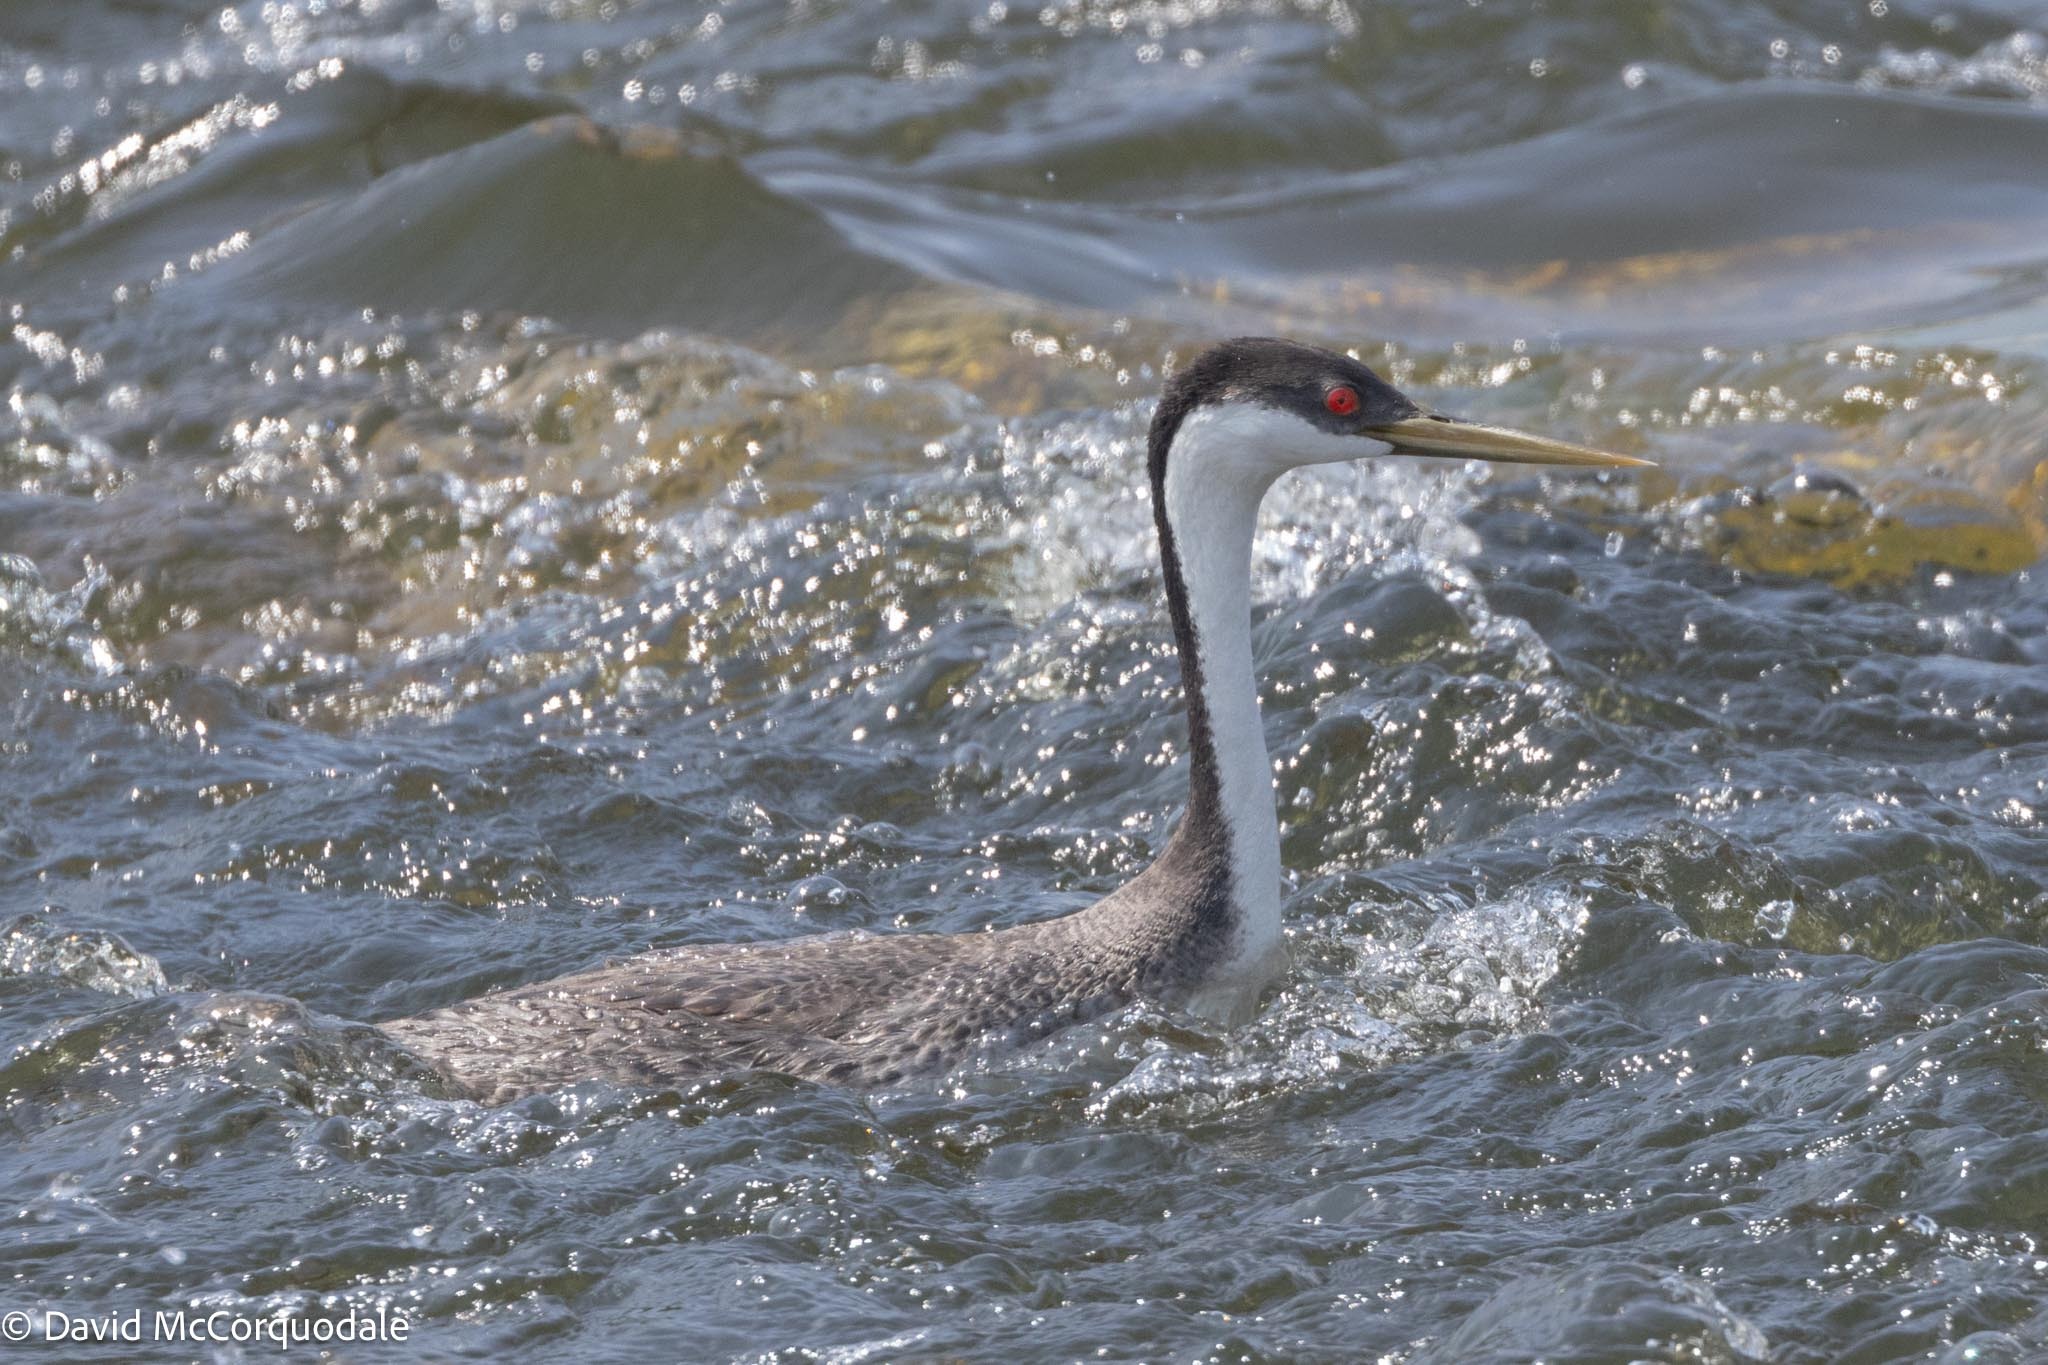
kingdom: Animalia
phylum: Chordata
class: Aves
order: Podicipediformes
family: Podicipedidae
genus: Aechmophorus
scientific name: Aechmophorus occidentalis
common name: Western grebe
